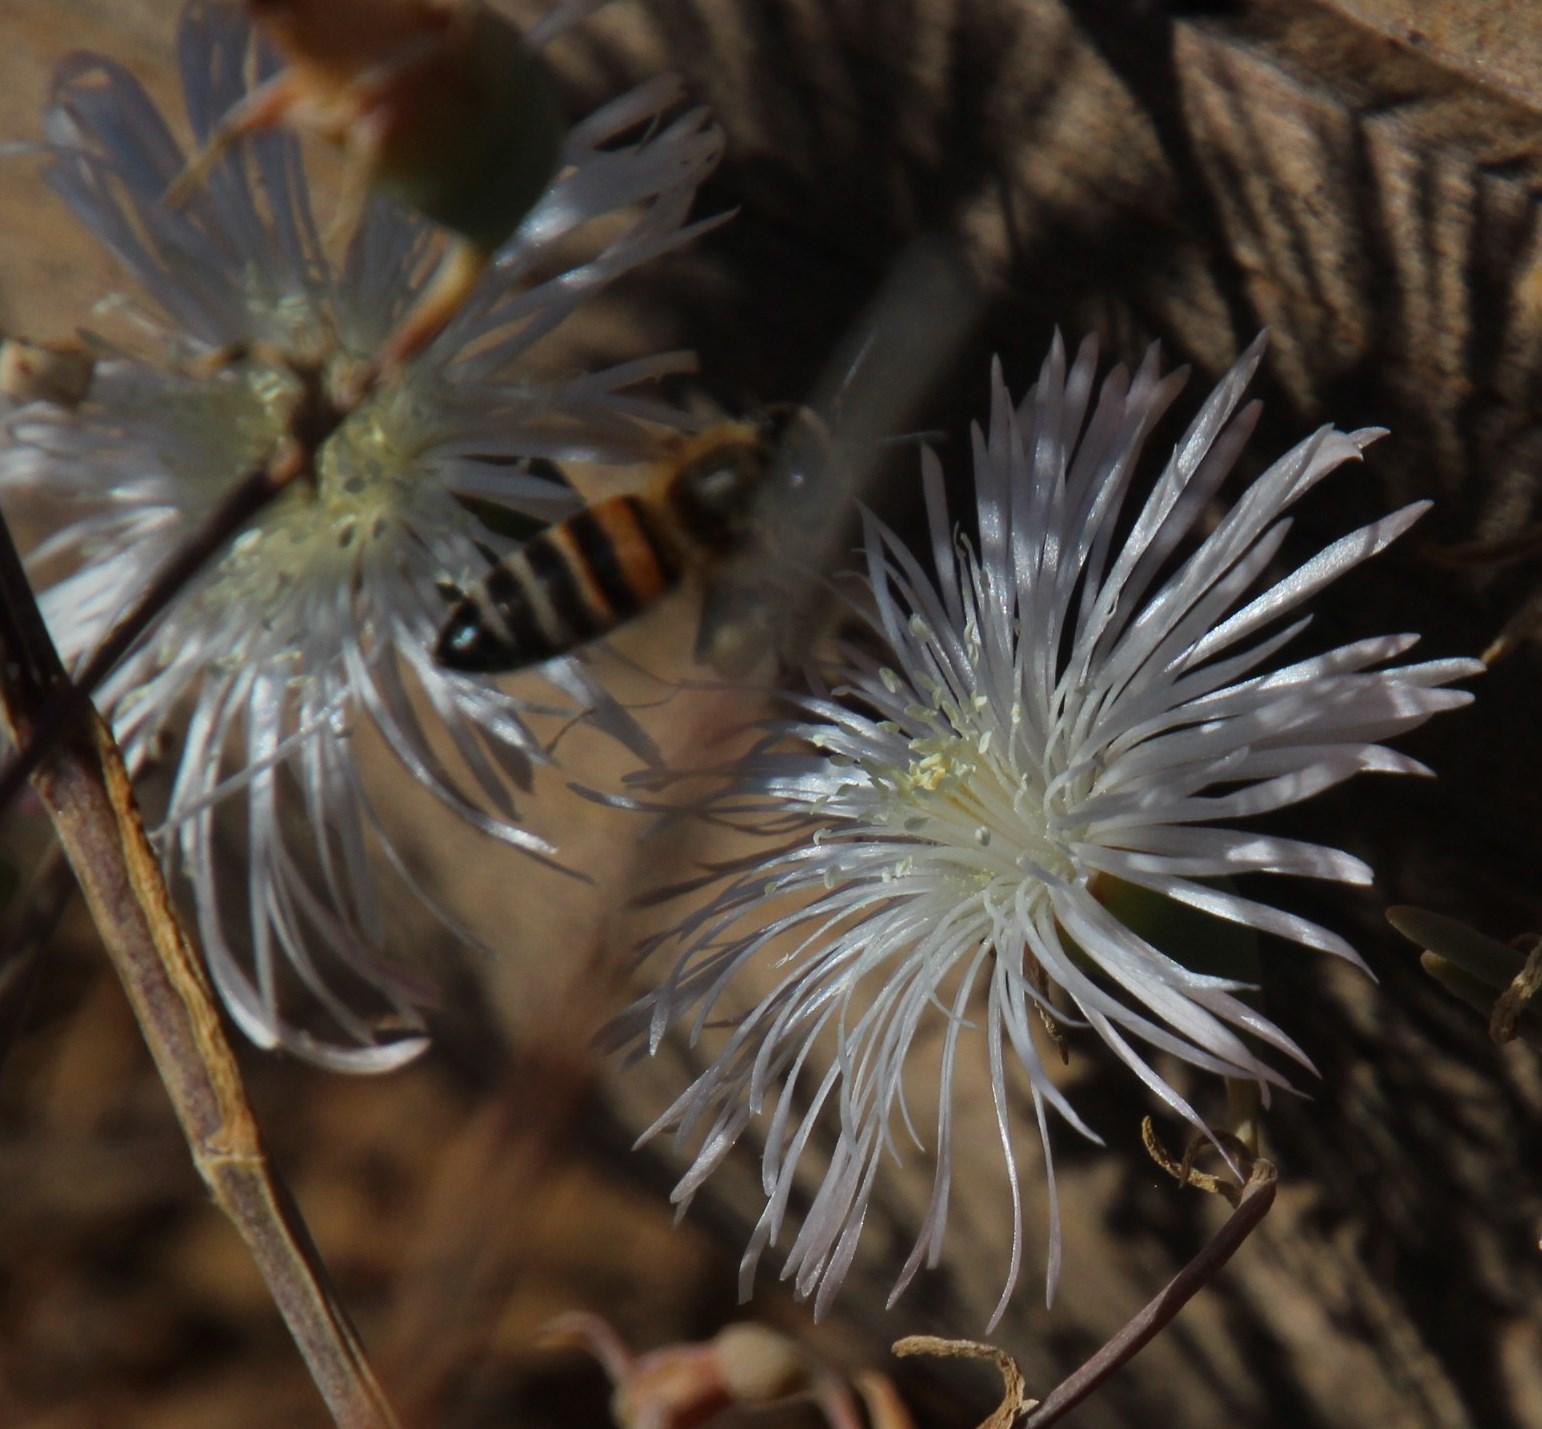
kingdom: Animalia
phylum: Arthropoda
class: Insecta
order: Hymenoptera
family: Apidae
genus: Apis
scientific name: Apis mellifera
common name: Honey bee
